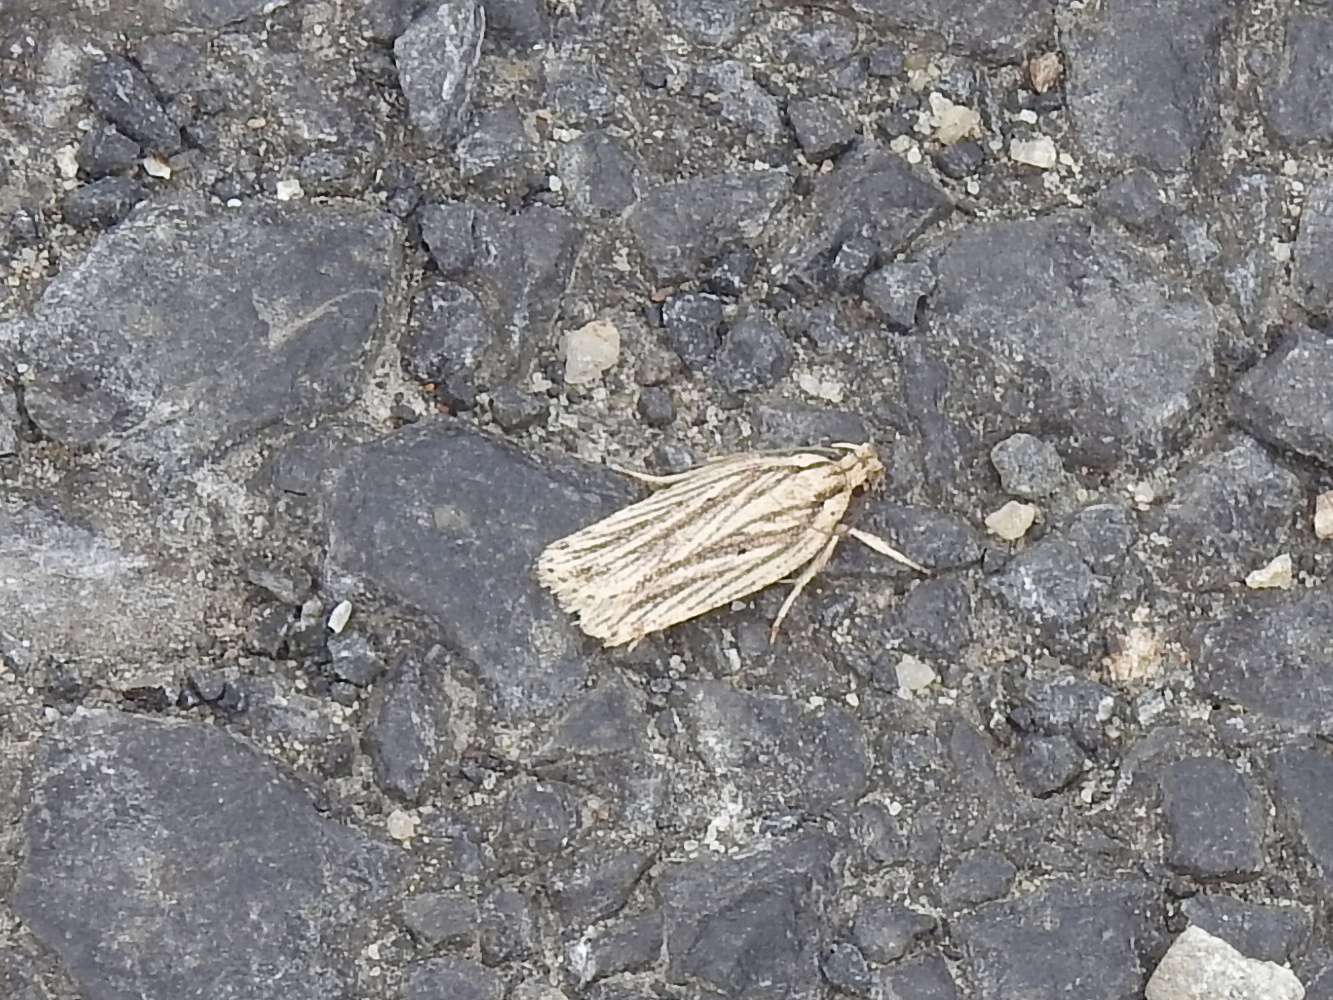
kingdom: Animalia
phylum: Arthropoda
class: Insecta
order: Lepidoptera
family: Depressariidae
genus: Agonopterix
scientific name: Agonopterix
